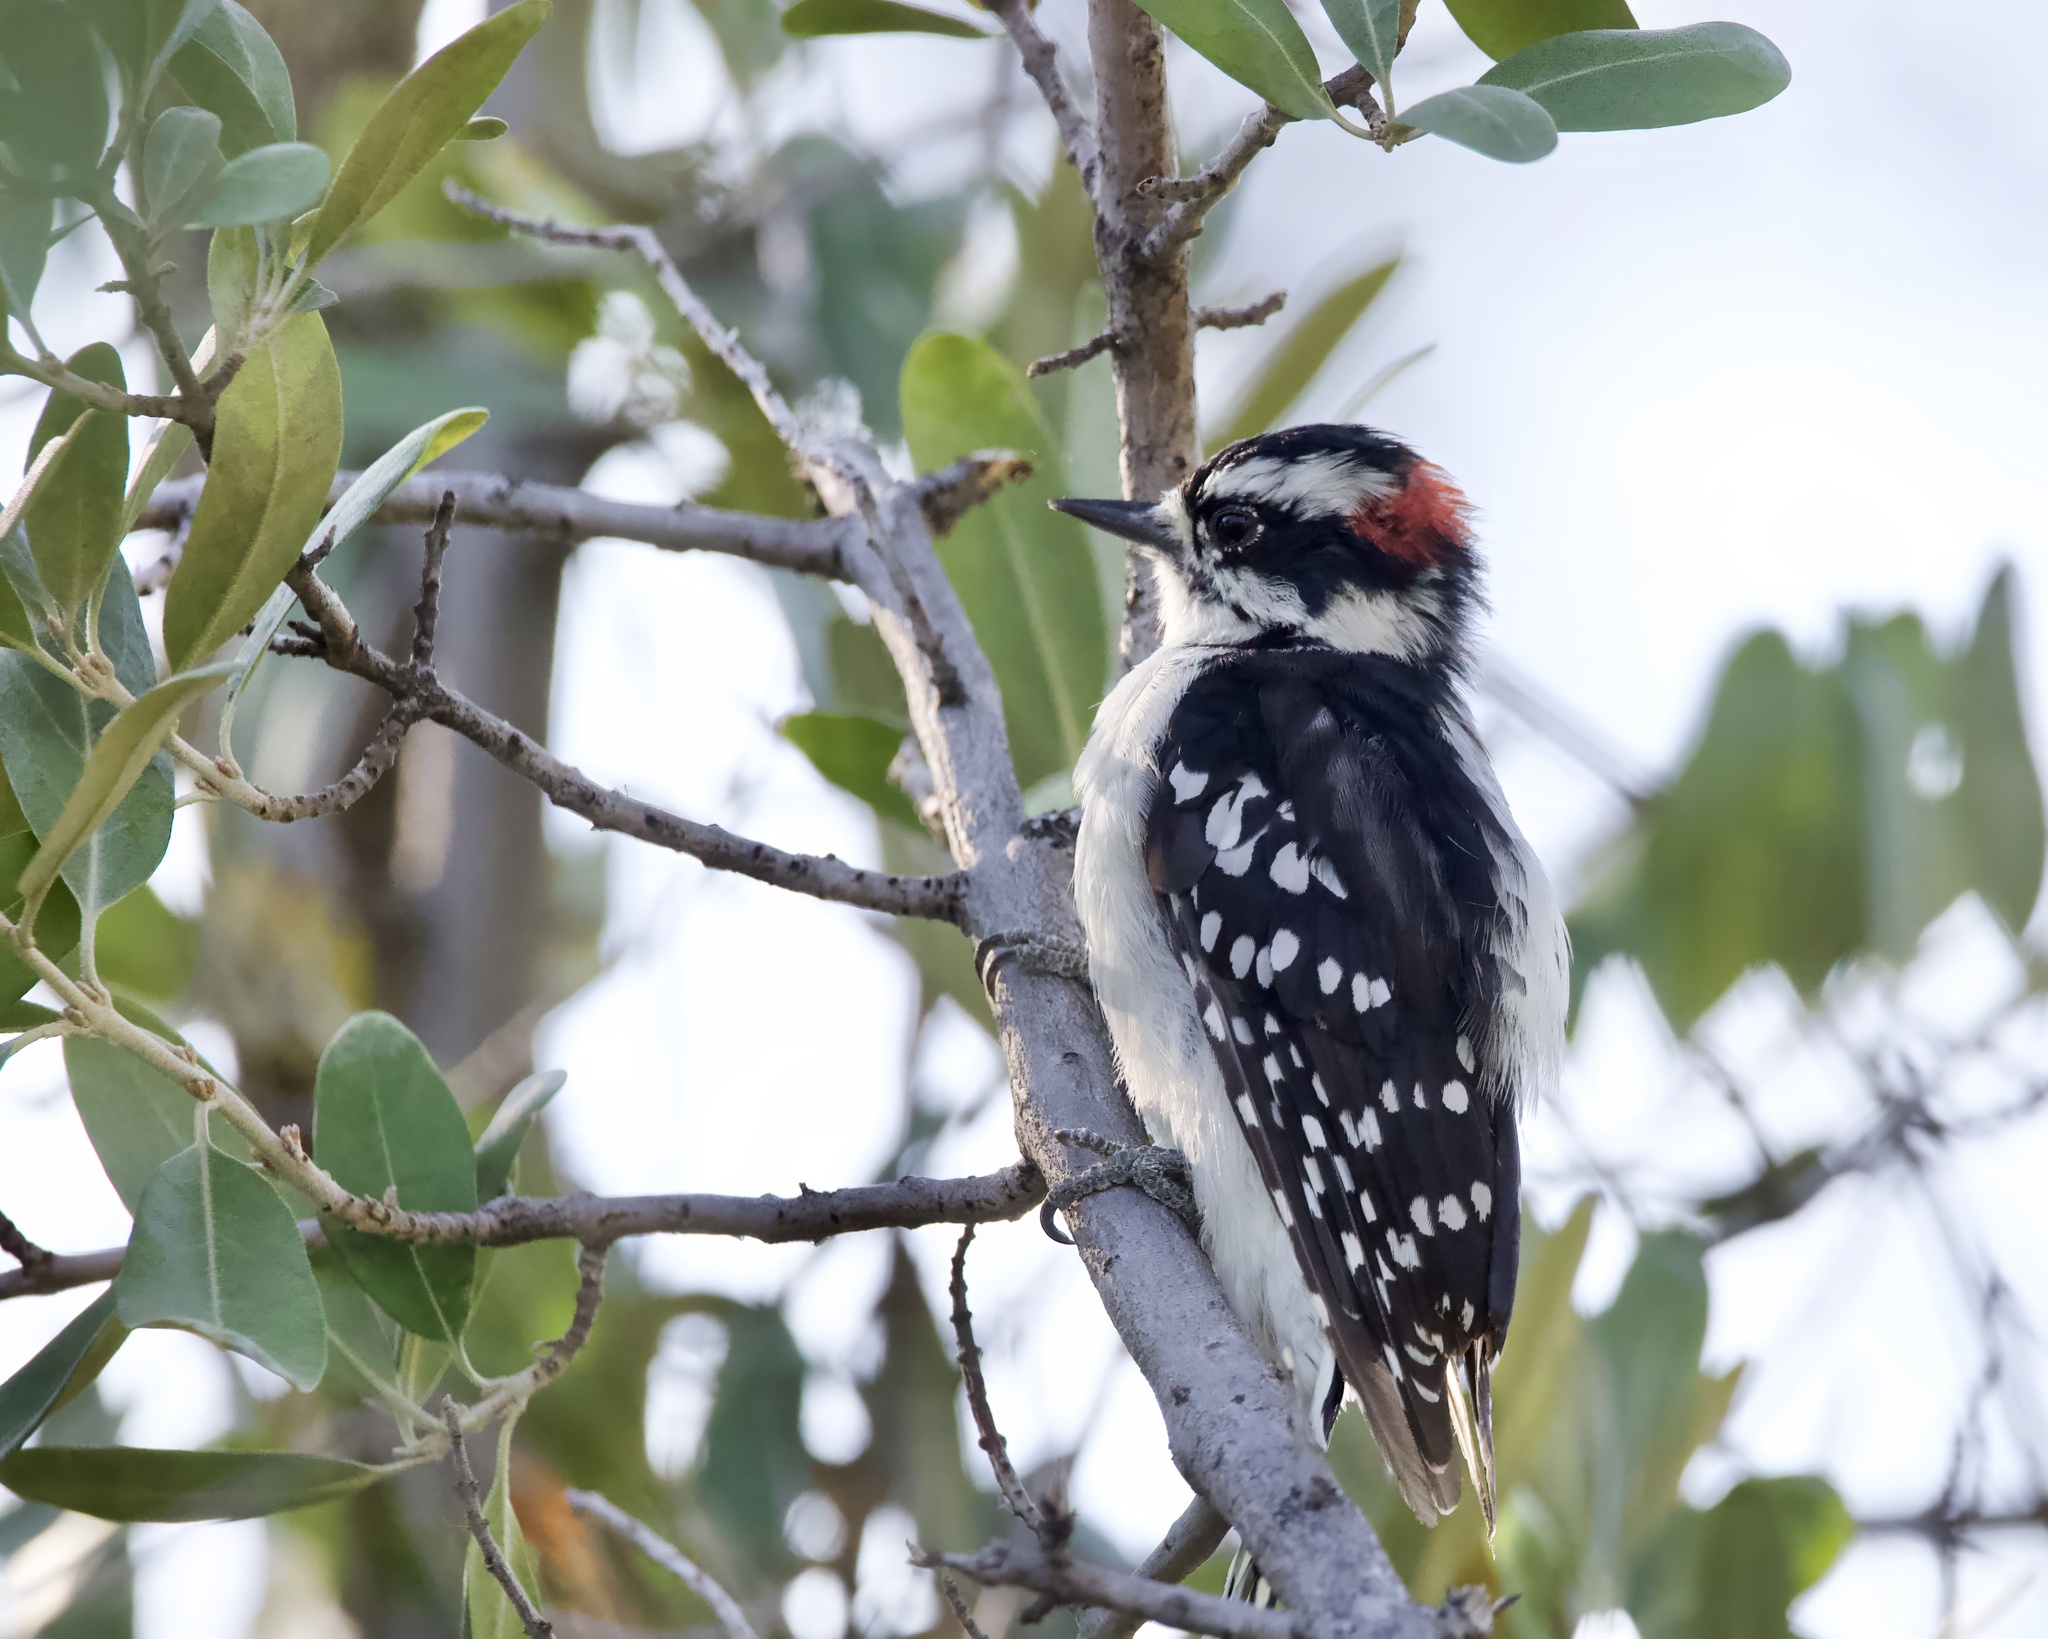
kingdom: Animalia
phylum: Chordata
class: Aves
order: Piciformes
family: Picidae
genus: Dryobates
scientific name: Dryobates pubescens
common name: Downy woodpecker
